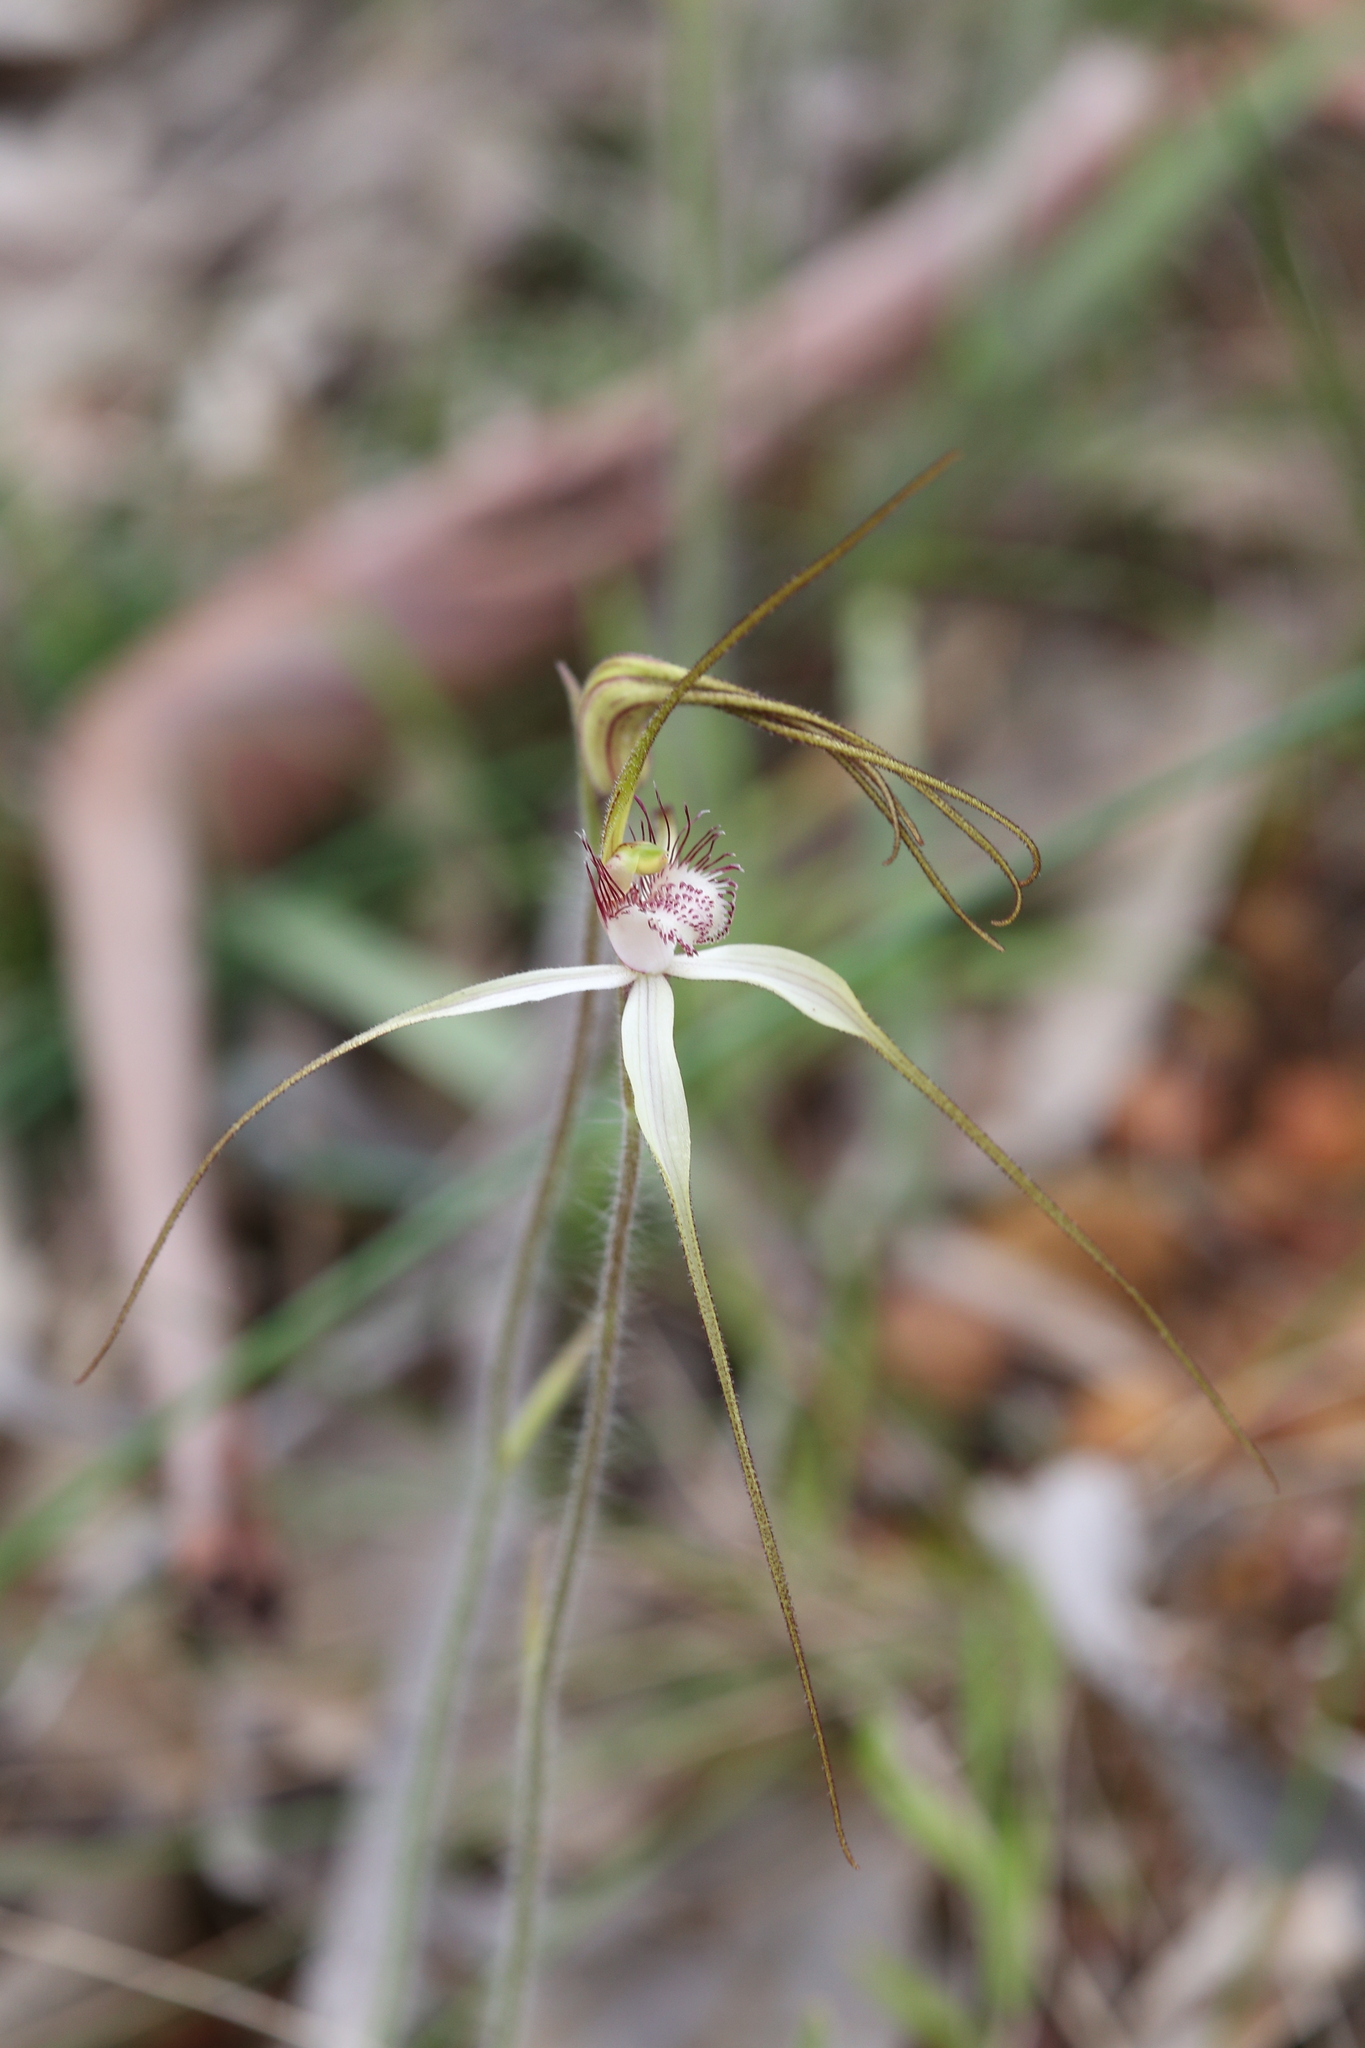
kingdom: Plantae
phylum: Tracheophyta
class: Liliopsida
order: Asparagales
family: Orchidaceae
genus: Caladenia
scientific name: Caladenia longicauda
